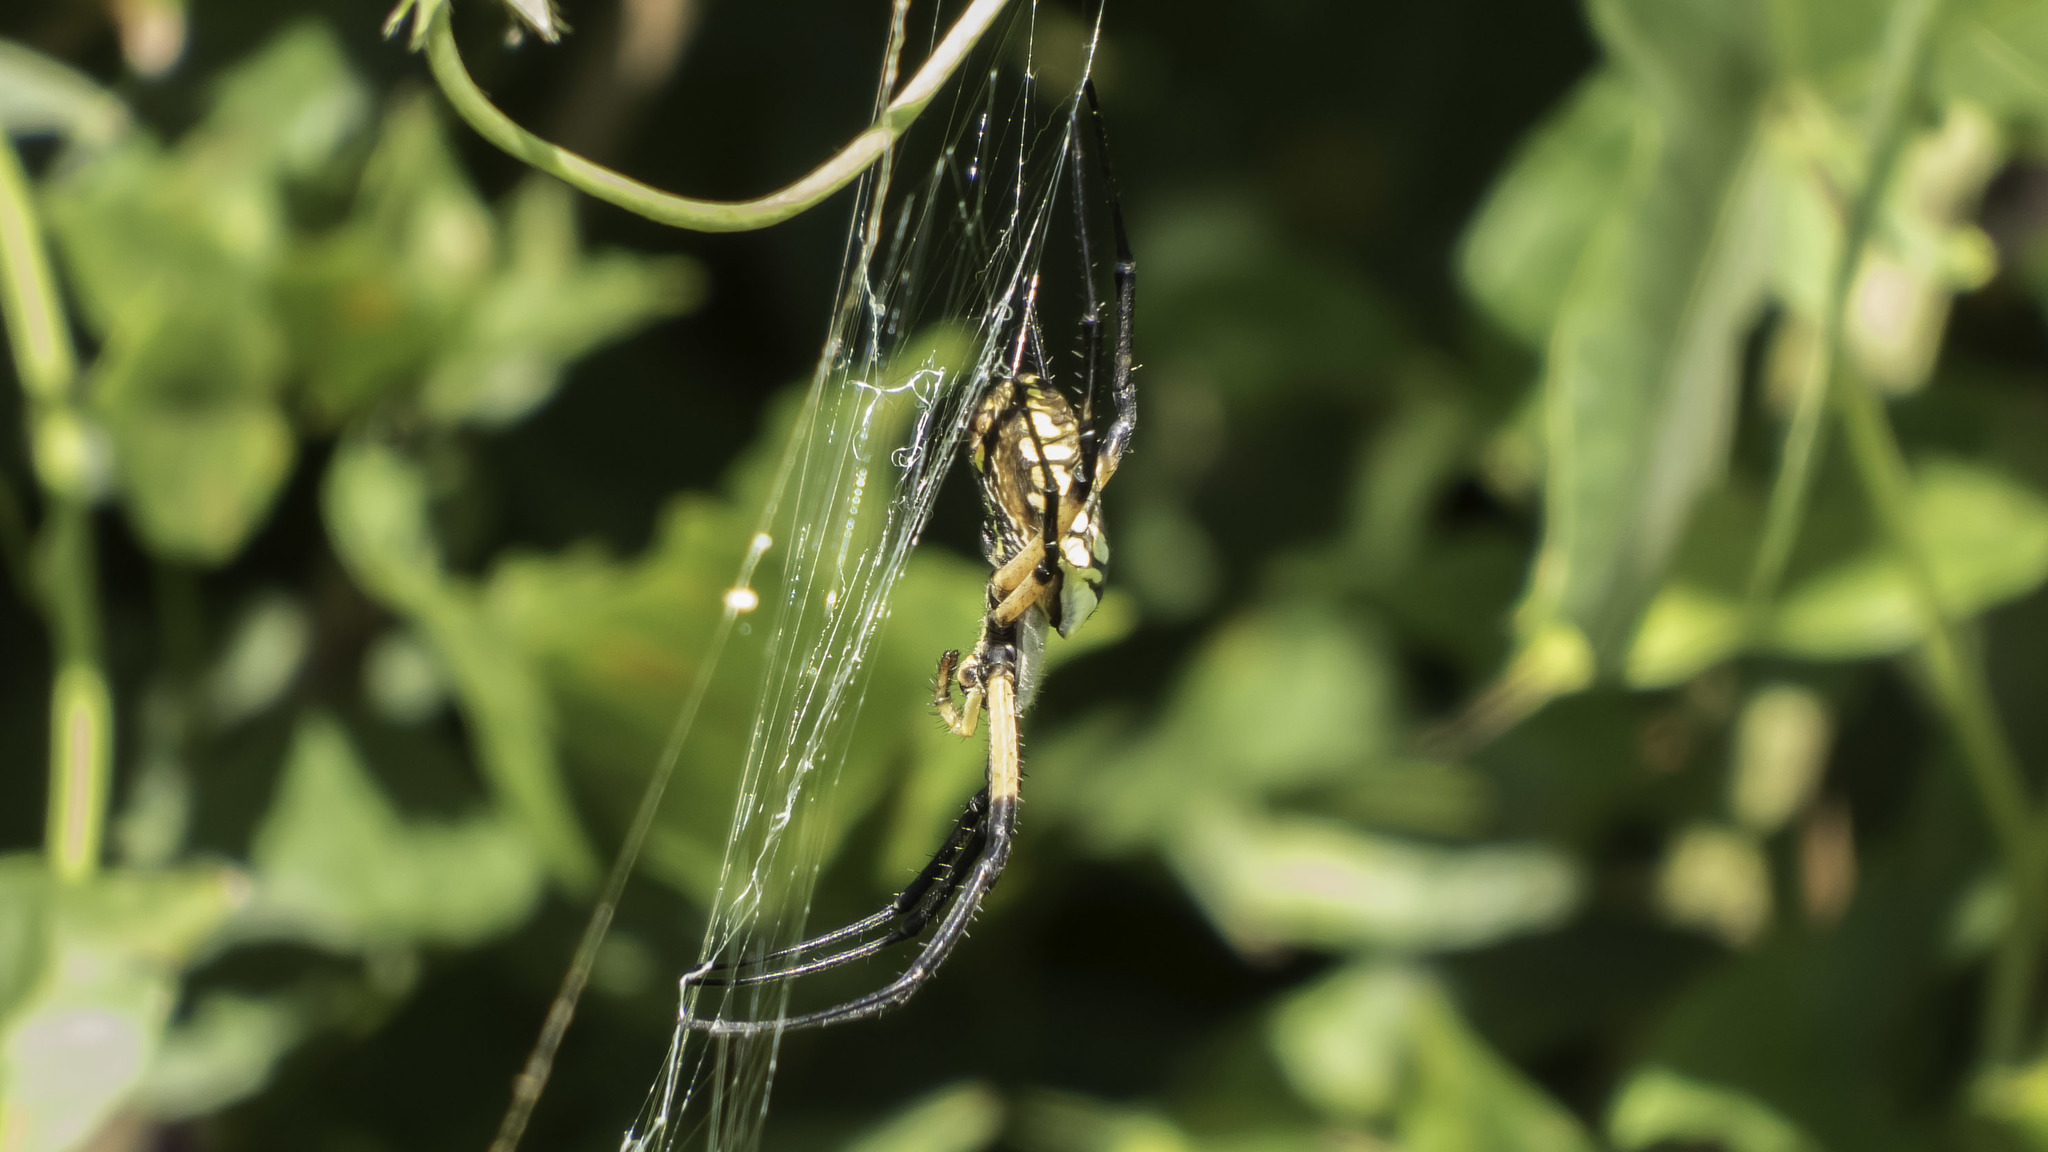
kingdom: Animalia
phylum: Arthropoda
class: Arachnida
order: Araneae
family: Araneidae
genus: Argiope
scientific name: Argiope aurantia
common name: Orb weavers
